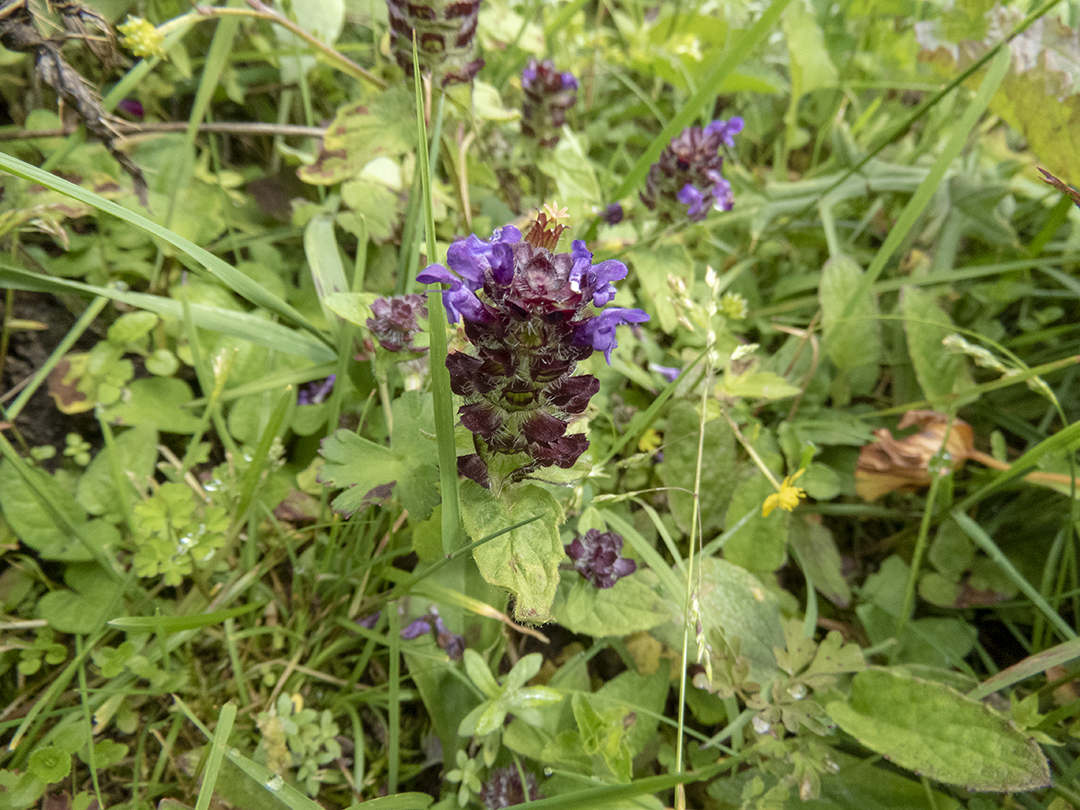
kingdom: Plantae
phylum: Tracheophyta
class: Magnoliopsida
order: Lamiales
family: Lamiaceae
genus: Prunella
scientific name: Prunella vulgaris
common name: Heal-all
